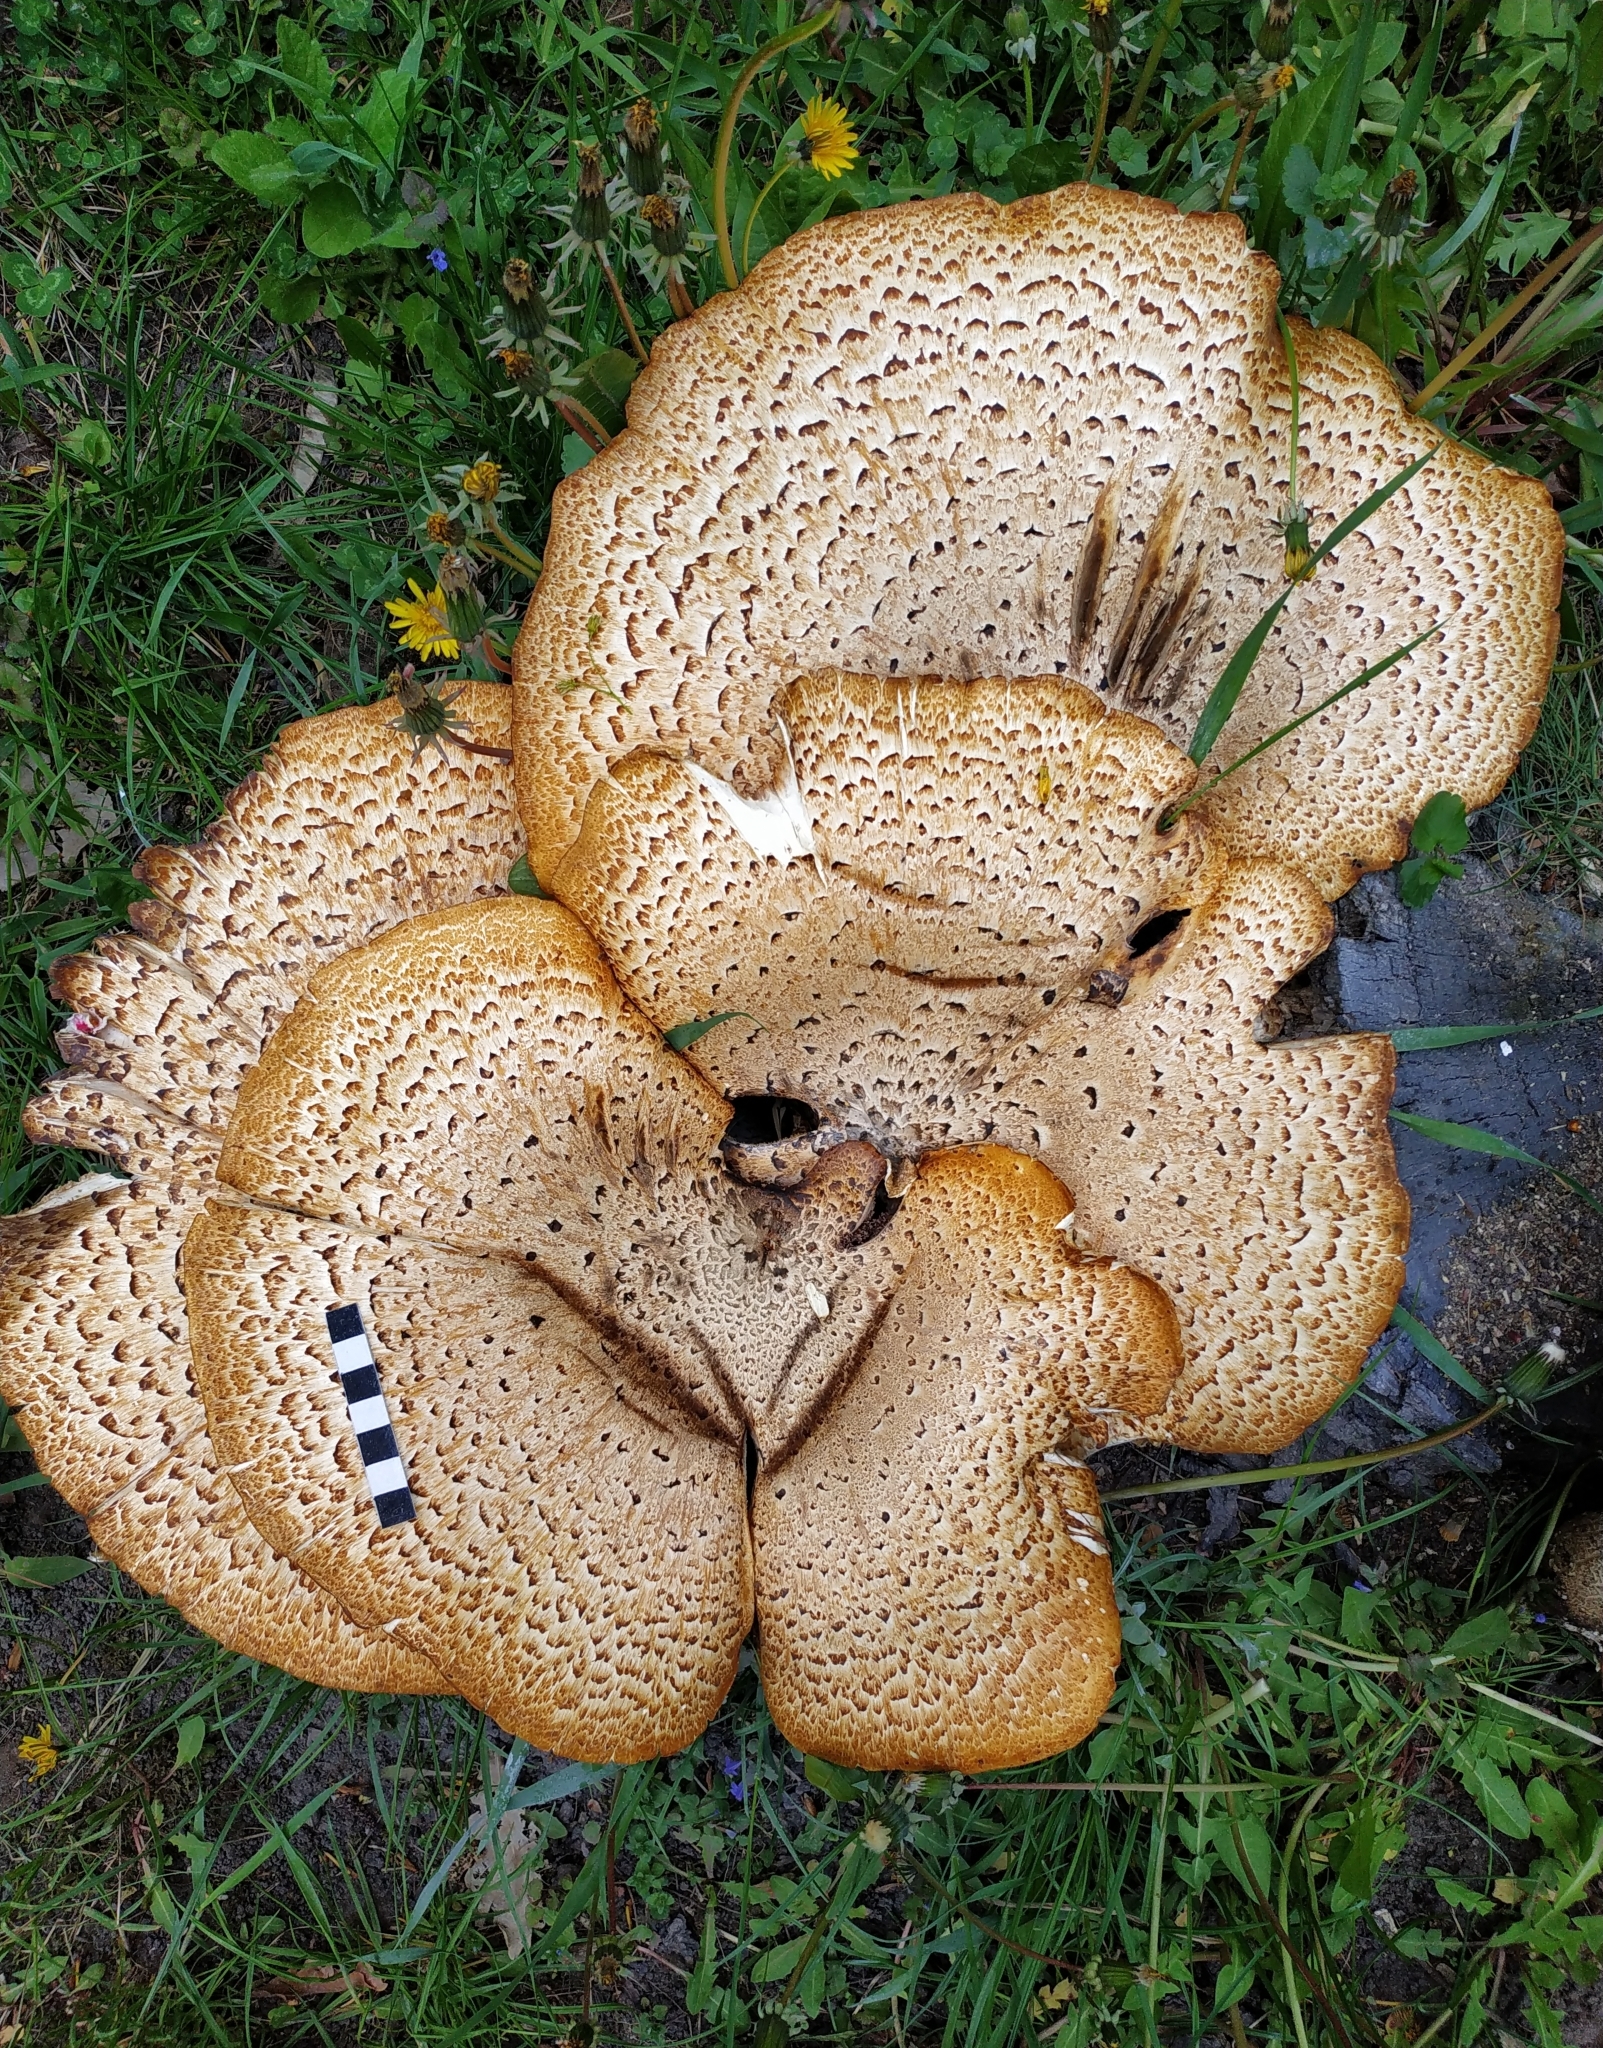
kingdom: Fungi
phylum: Basidiomycota
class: Agaricomycetes
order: Polyporales
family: Polyporaceae
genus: Cerioporus
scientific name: Cerioporus squamosus
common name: Dryad's saddle
